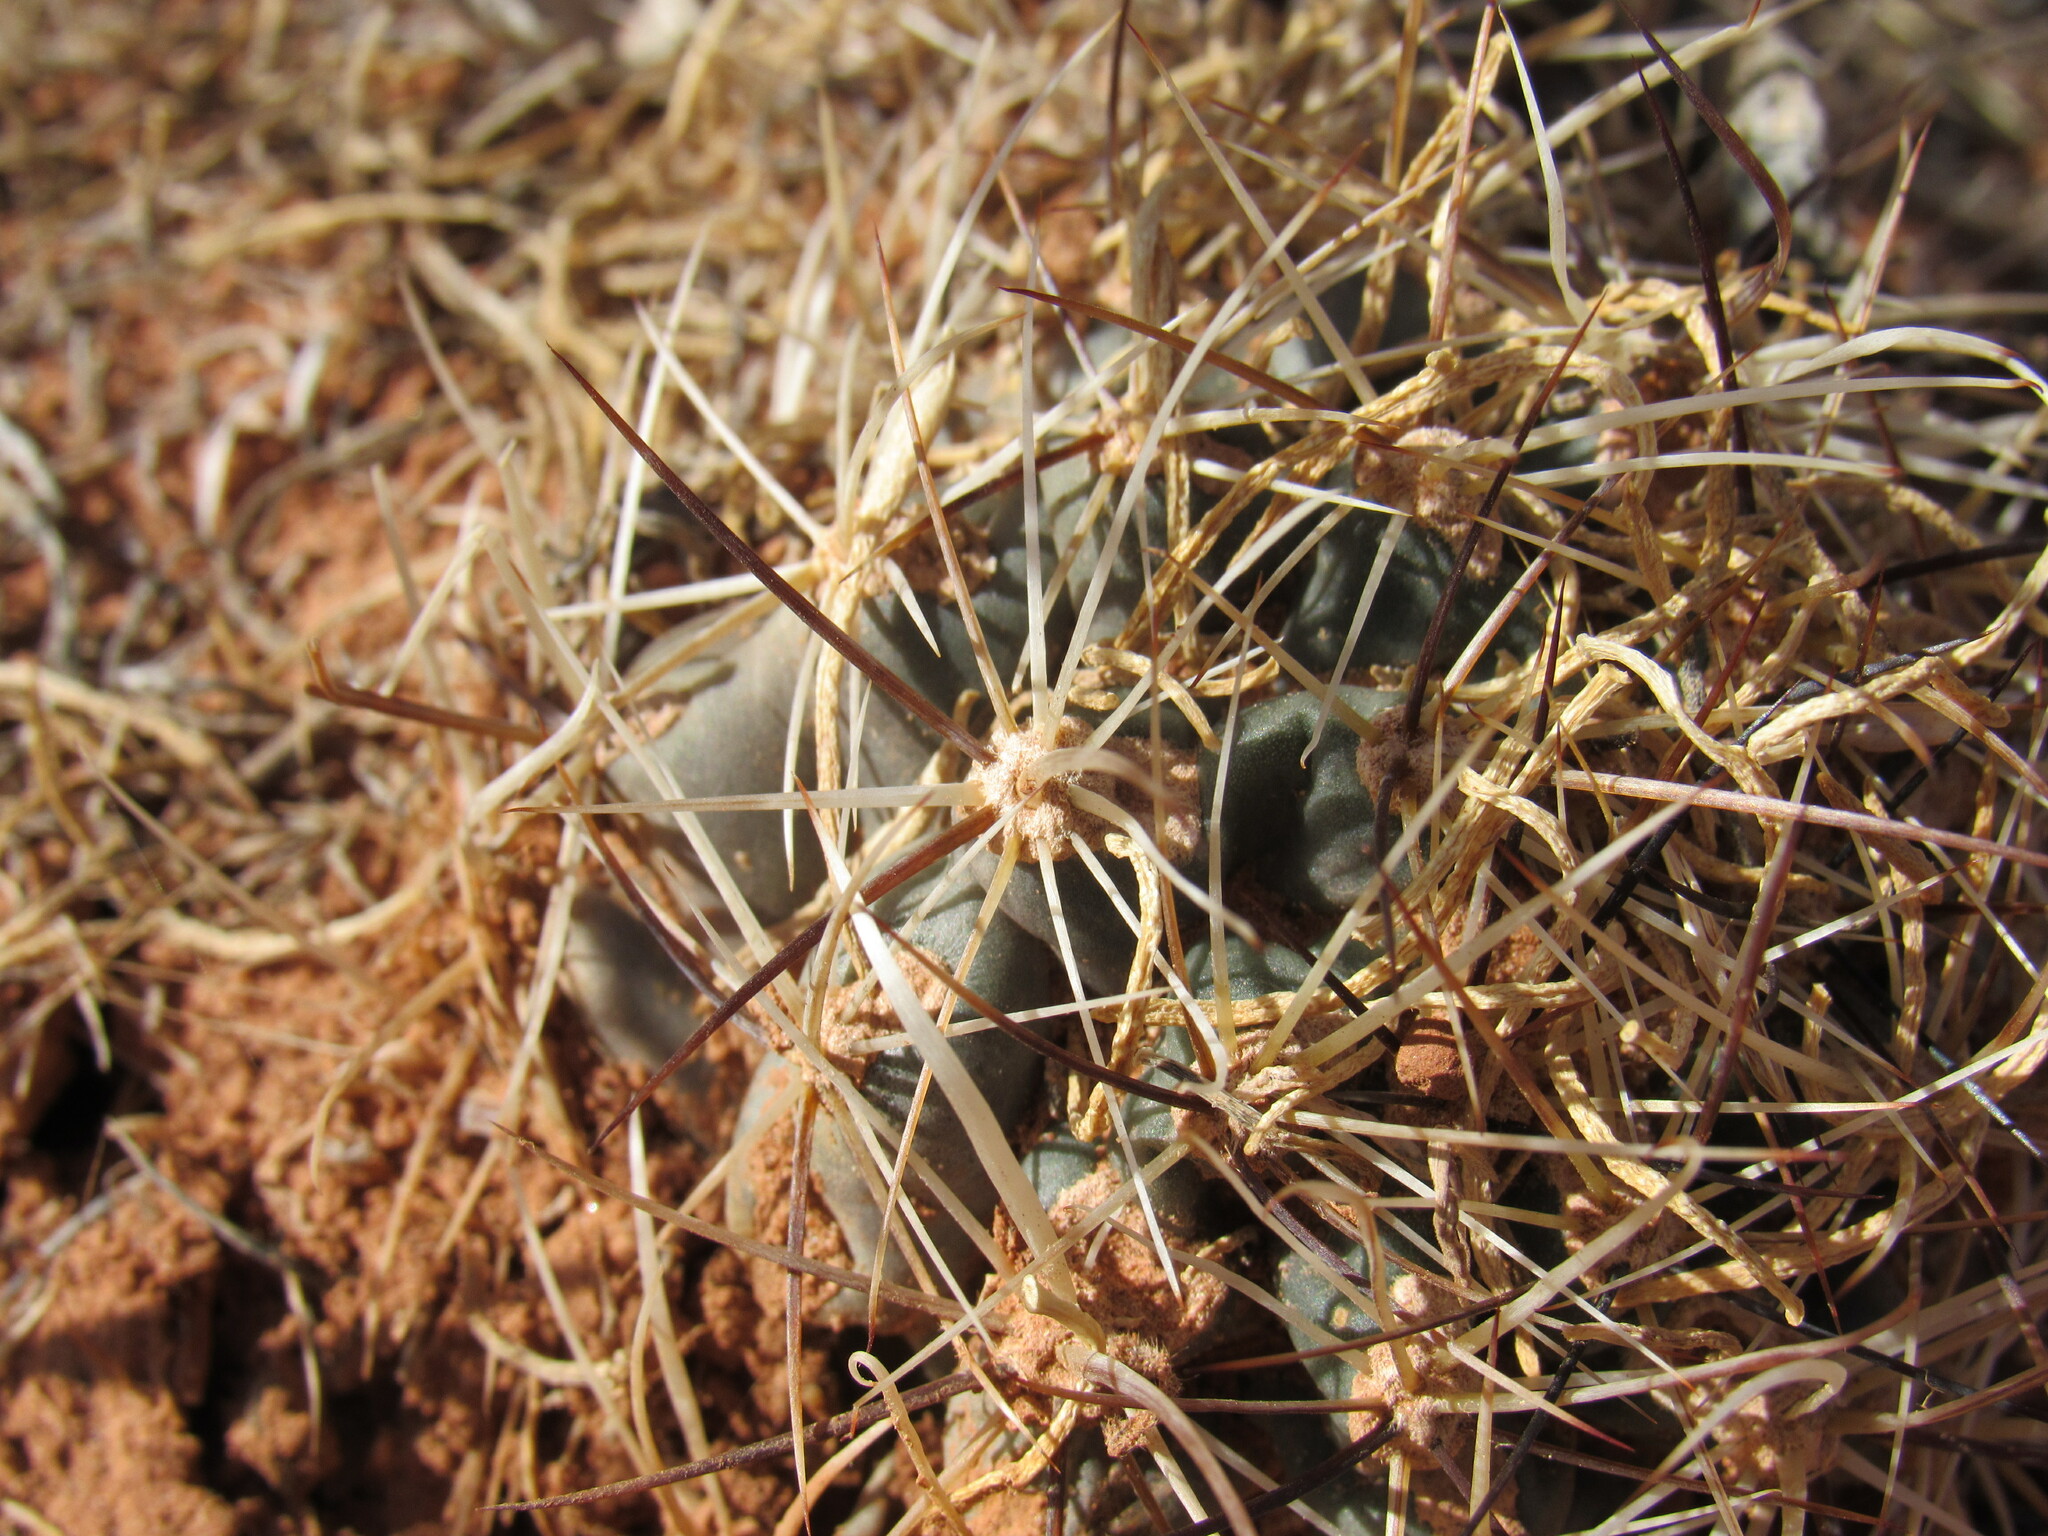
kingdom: Plantae
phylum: Tracheophyta
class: Magnoliopsida
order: Caryophyllales
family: Cactaceae
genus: Sclerocactus
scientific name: Sclerocactus glaucus
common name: Colorado hookless cactus
